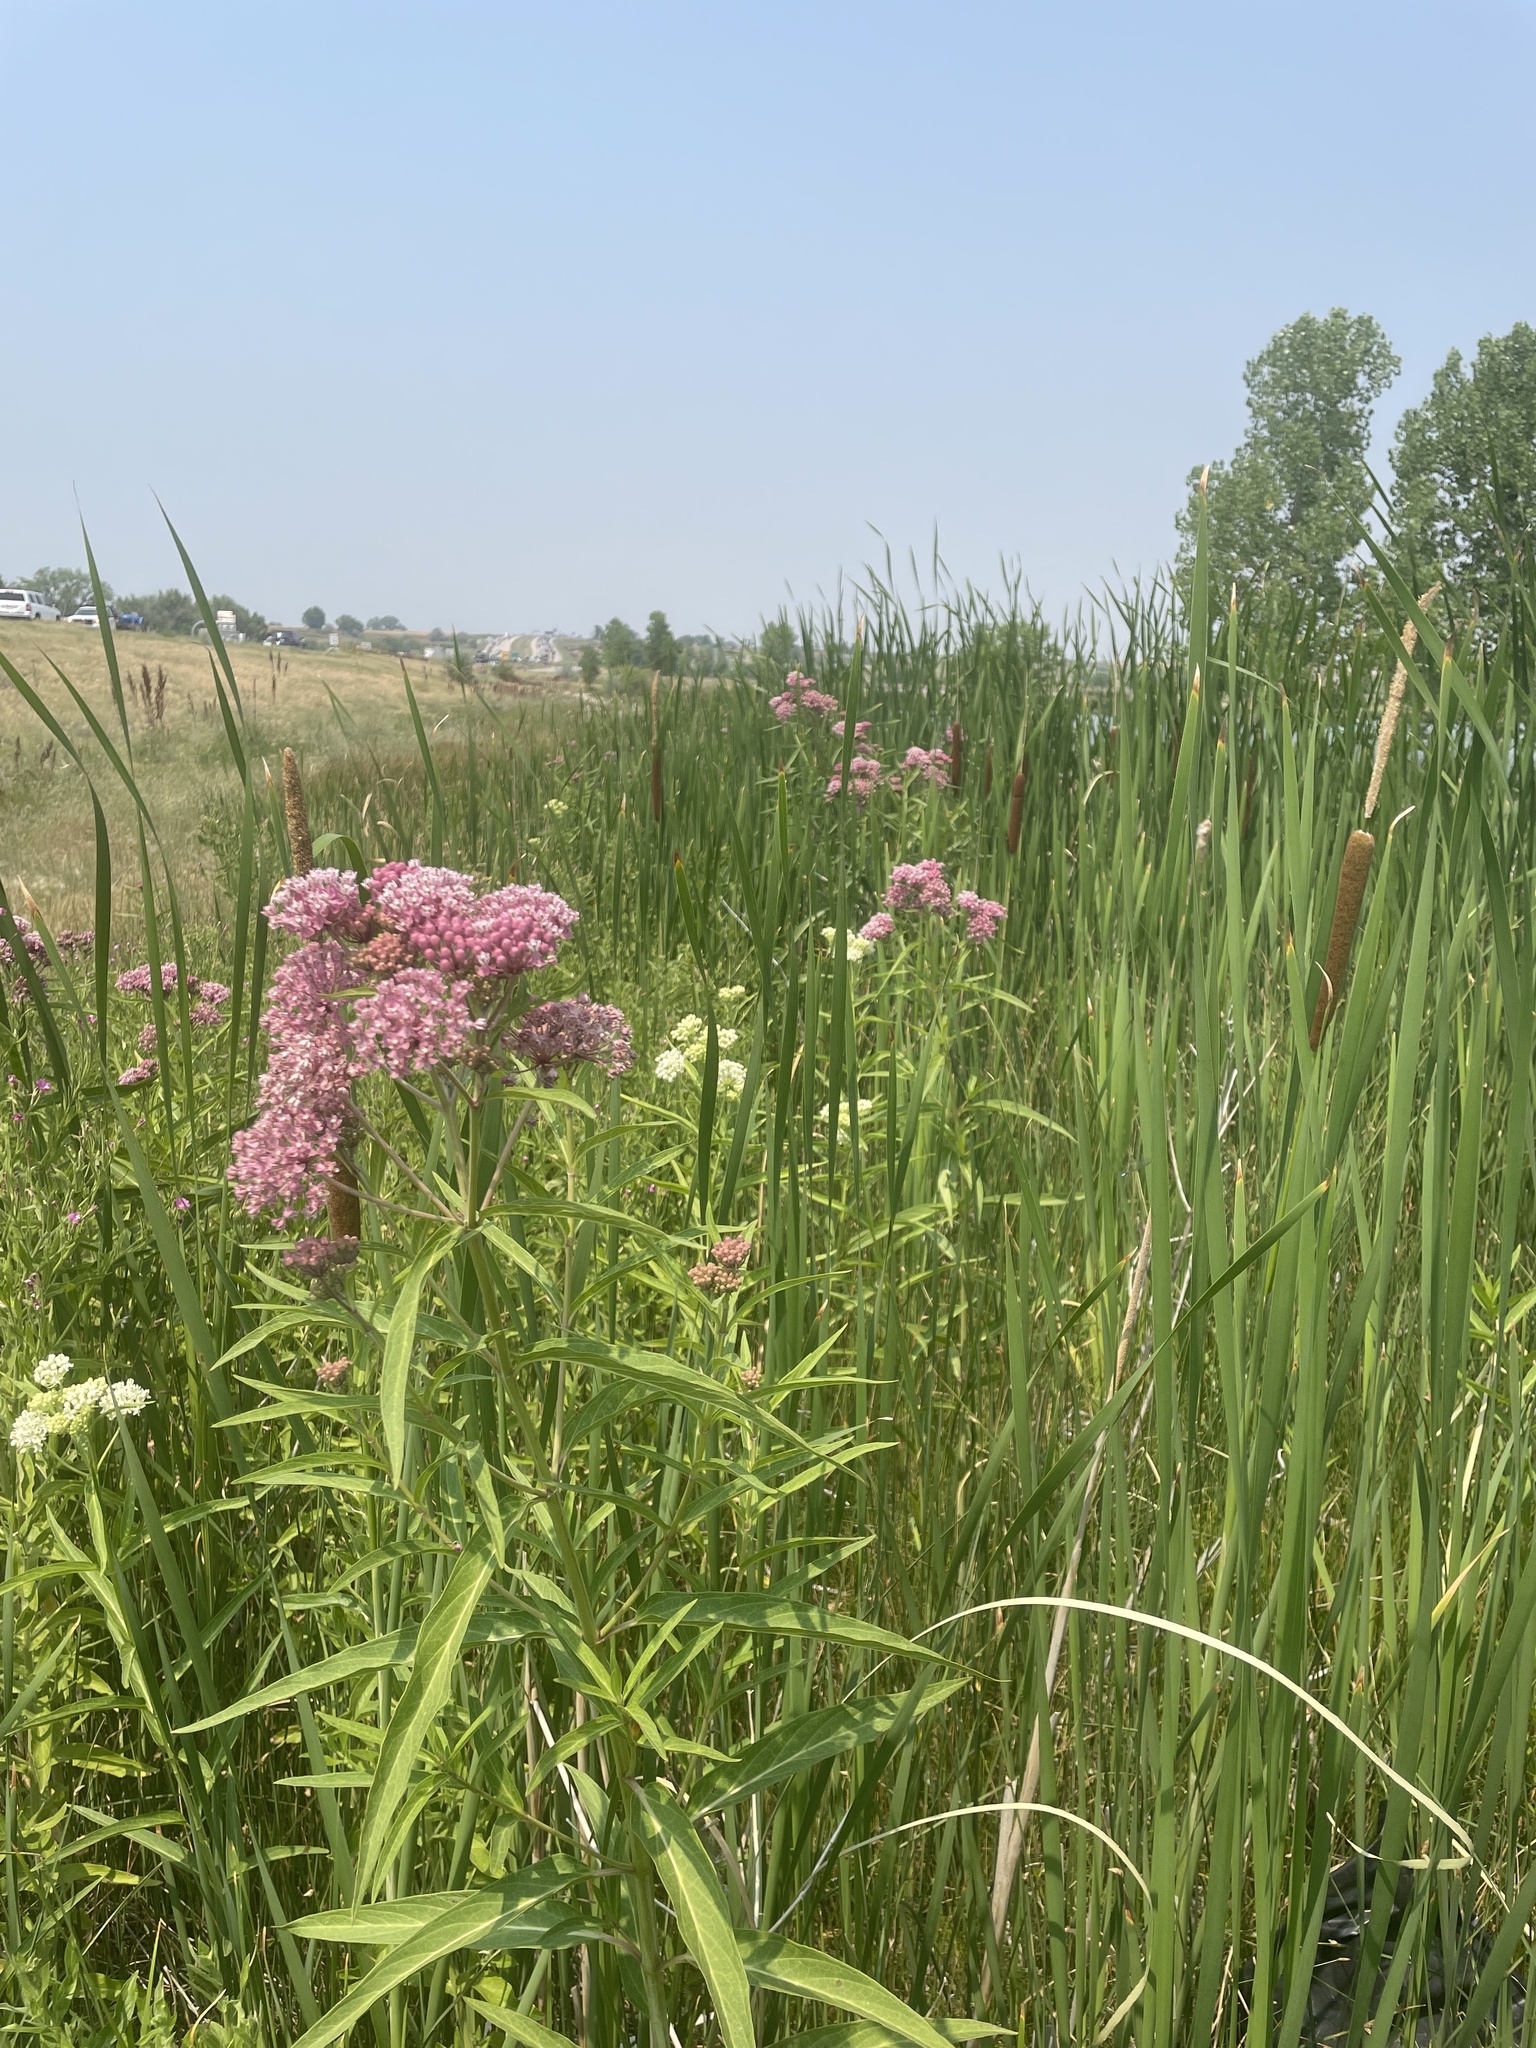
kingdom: Plantae
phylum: Tracheophyta
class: Magnoliopsida
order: Gentianales
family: Apocynaceae
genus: Asclepias
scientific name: Asclepias incarnata
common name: Swamp milkweed
